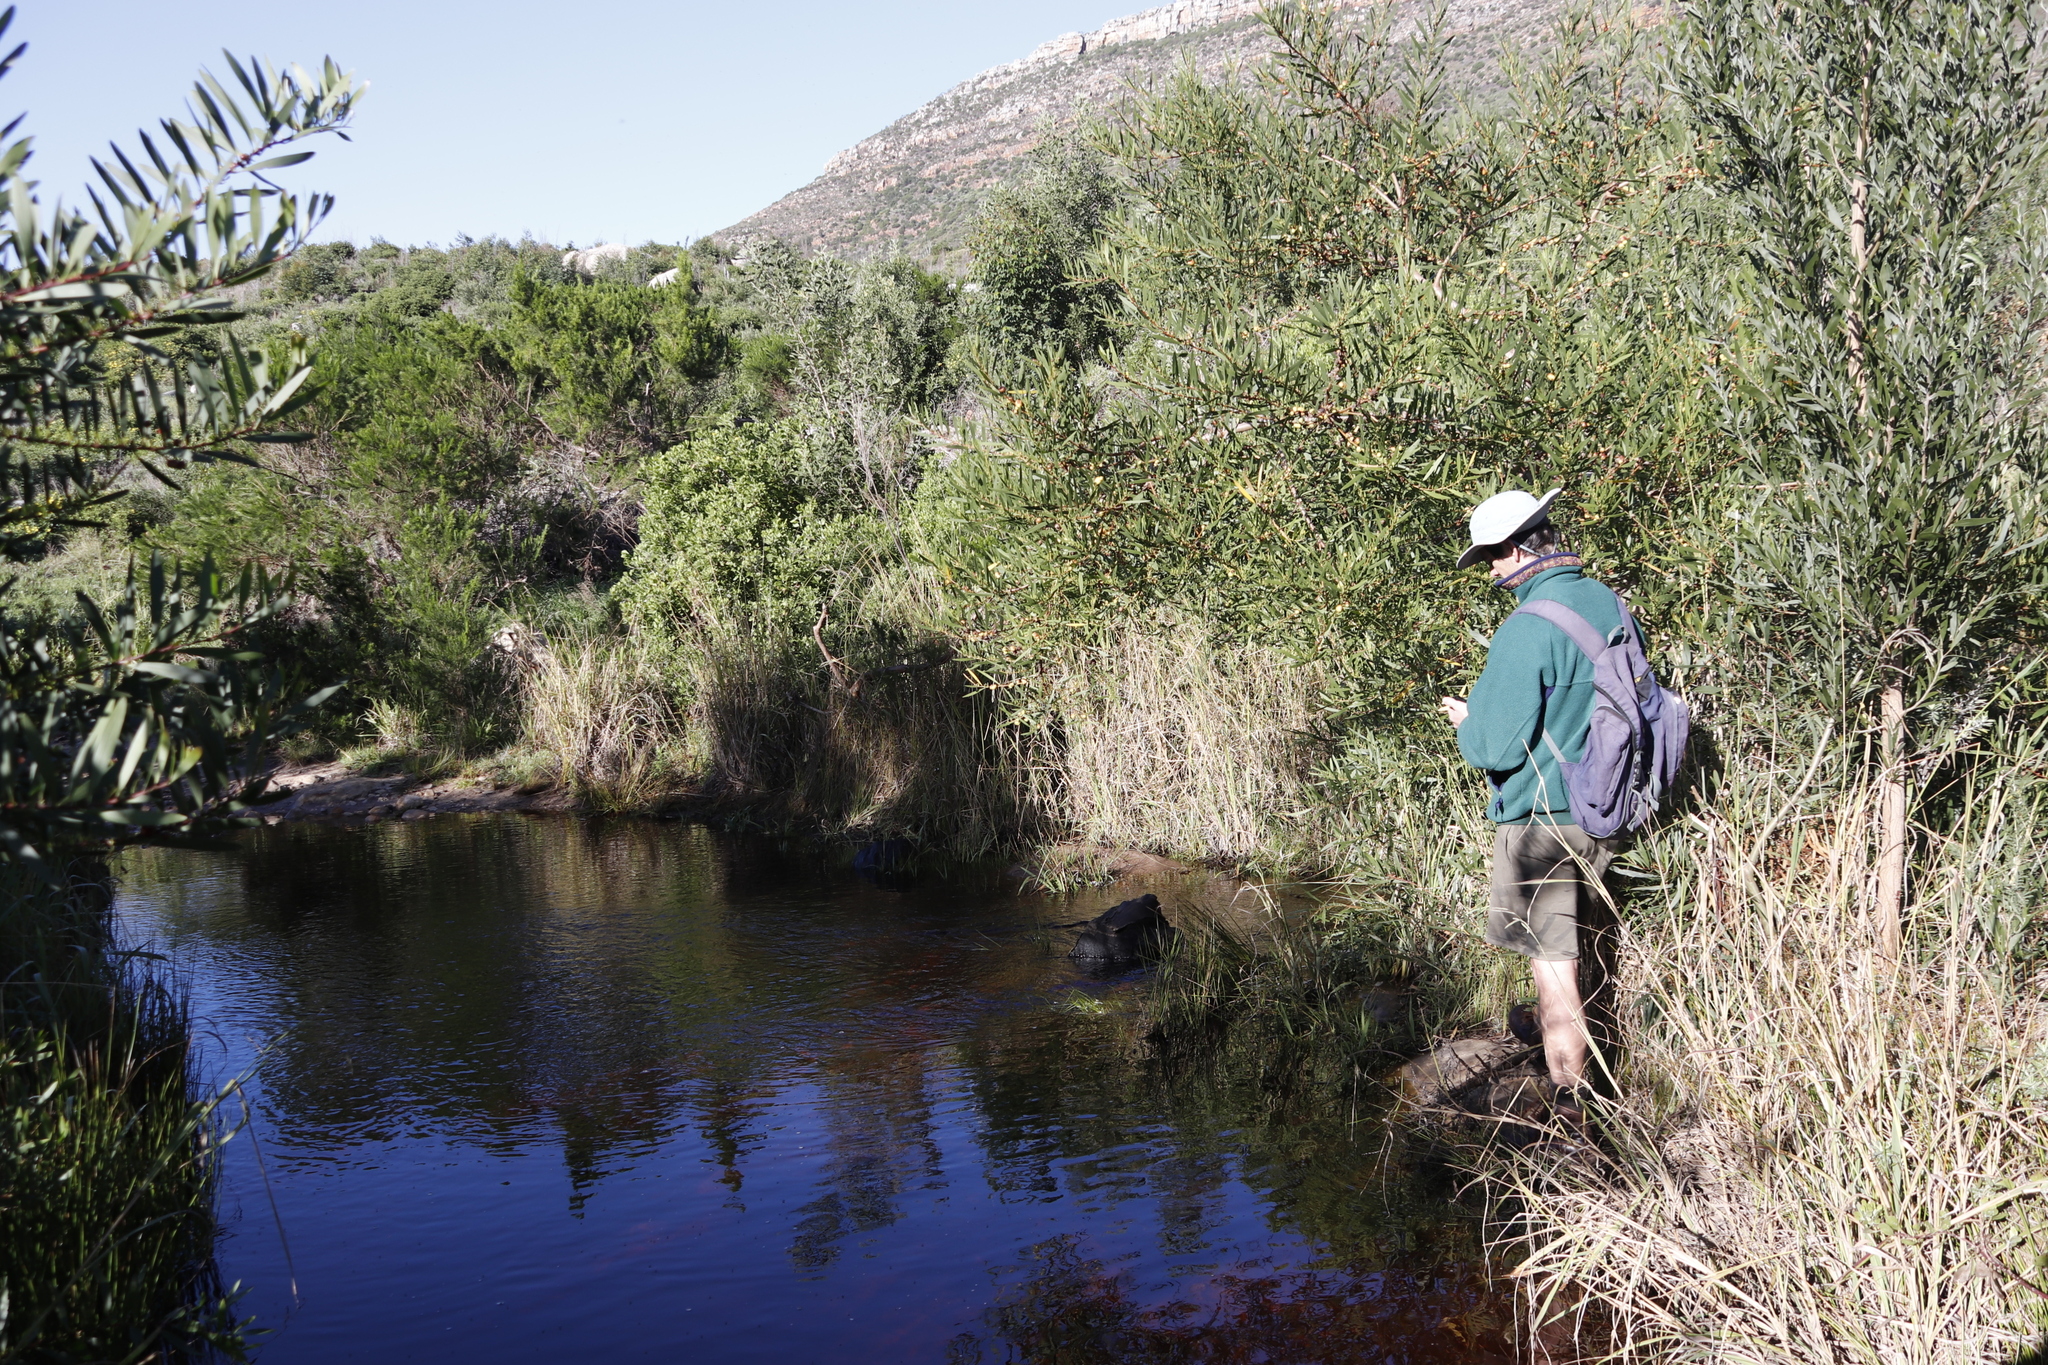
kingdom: Plantae
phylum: Tracheophyta
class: Magnoliopsida
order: Fabales
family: Fabaceae
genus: Acacia
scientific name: Acacia longifolia
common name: Sydney golden wattle
